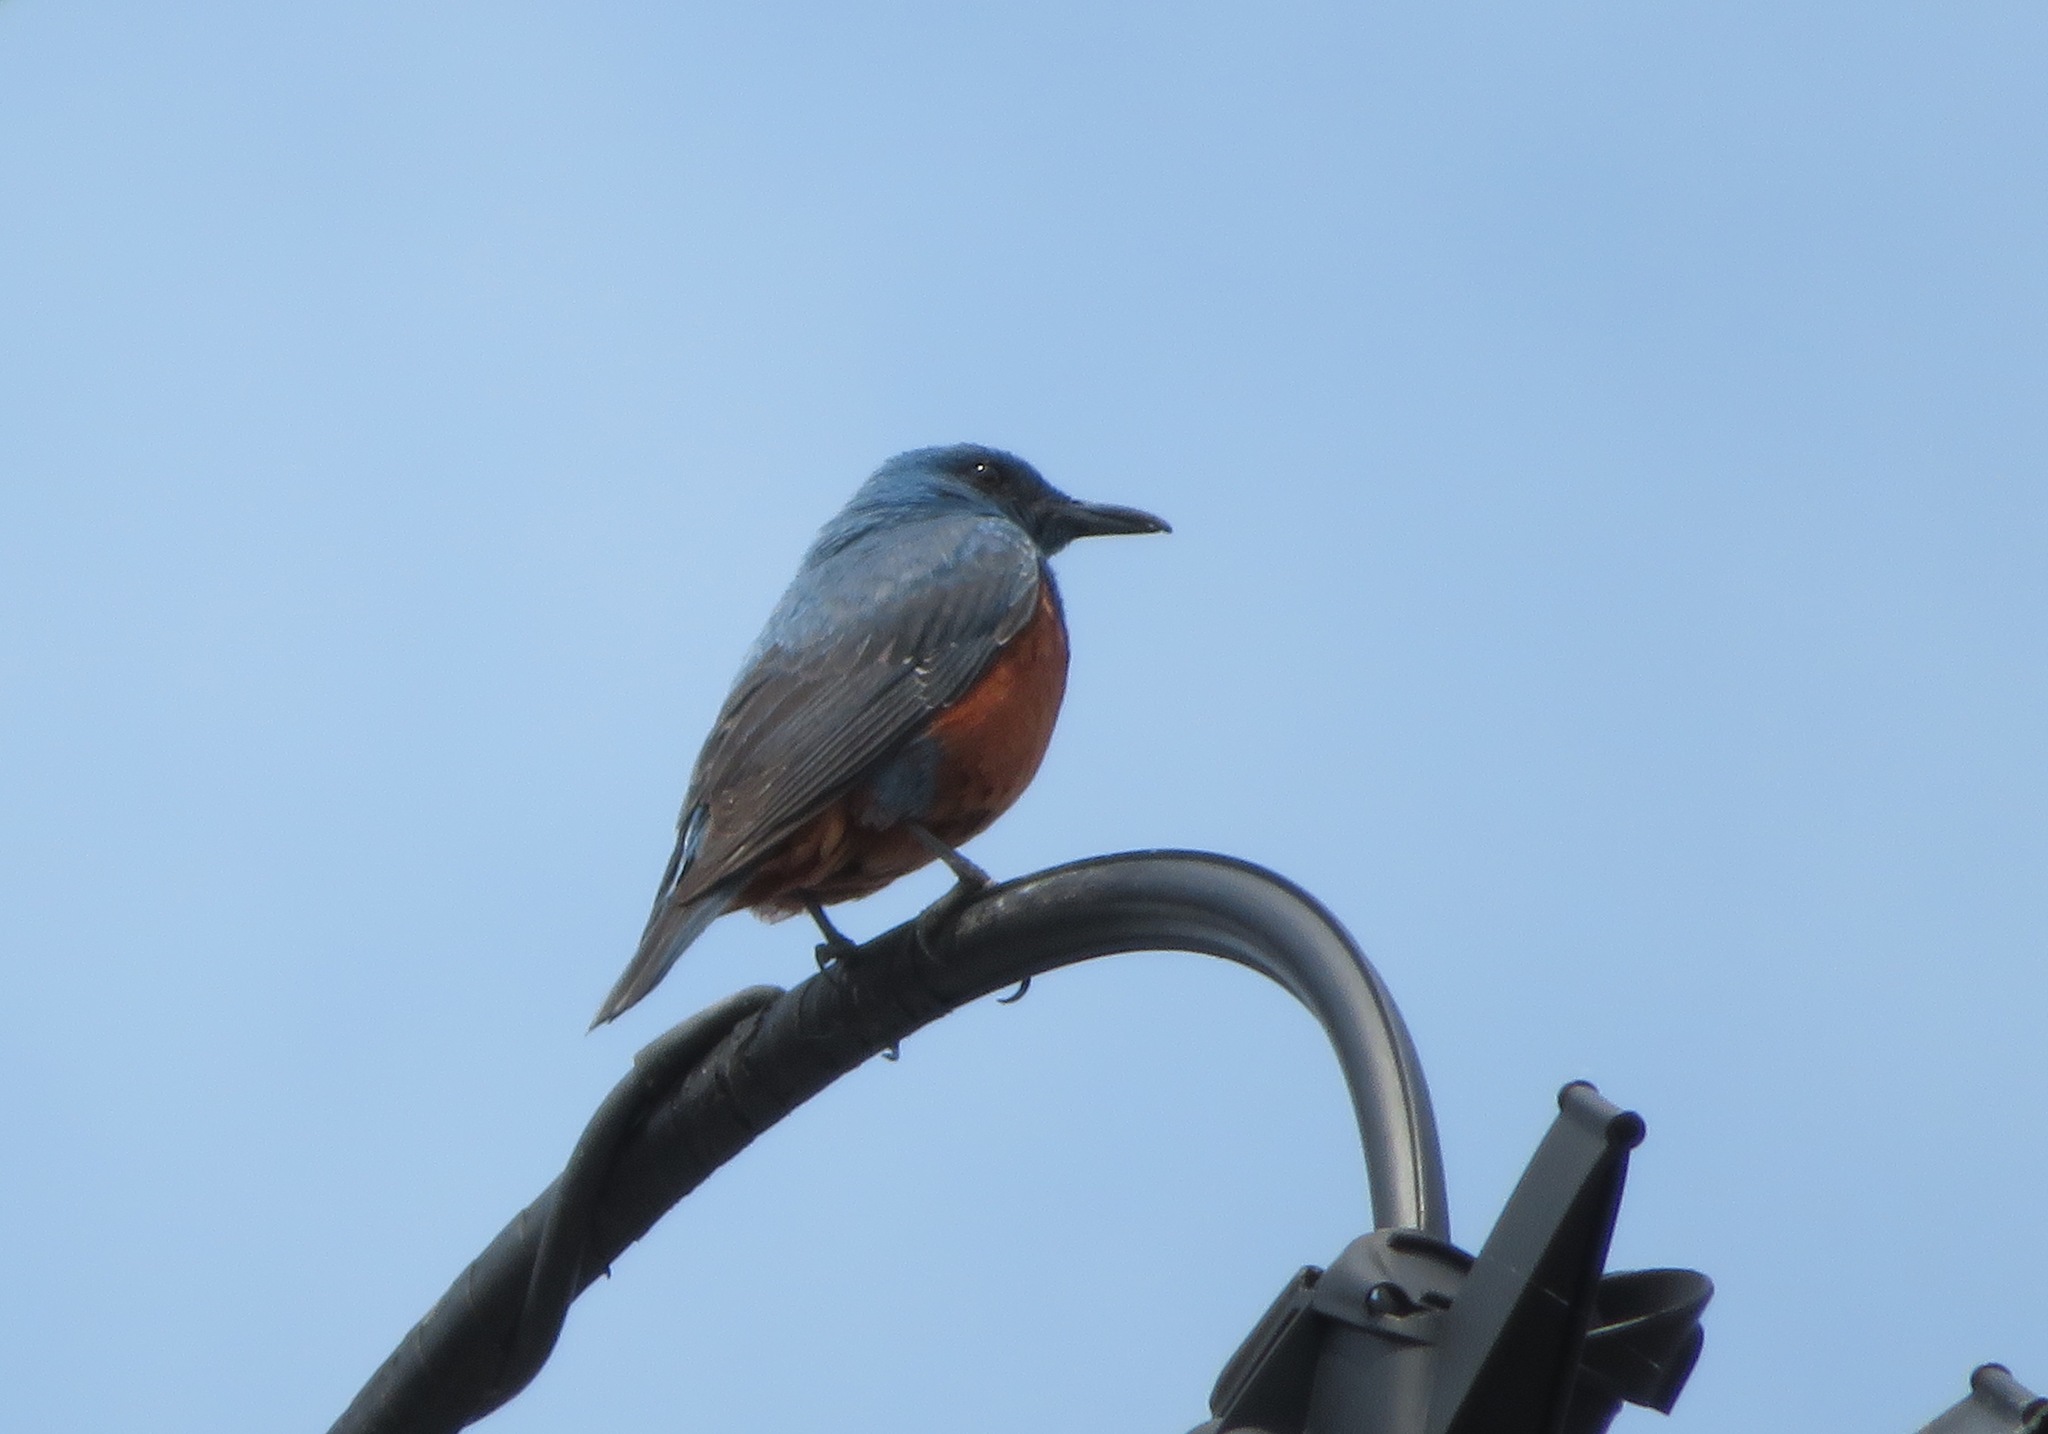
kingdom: Animalia
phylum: Chordata
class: Aves
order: Passeriformes
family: Muscicapidae
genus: Monticola
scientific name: Monticola solitarius
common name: Blue rock thrush
